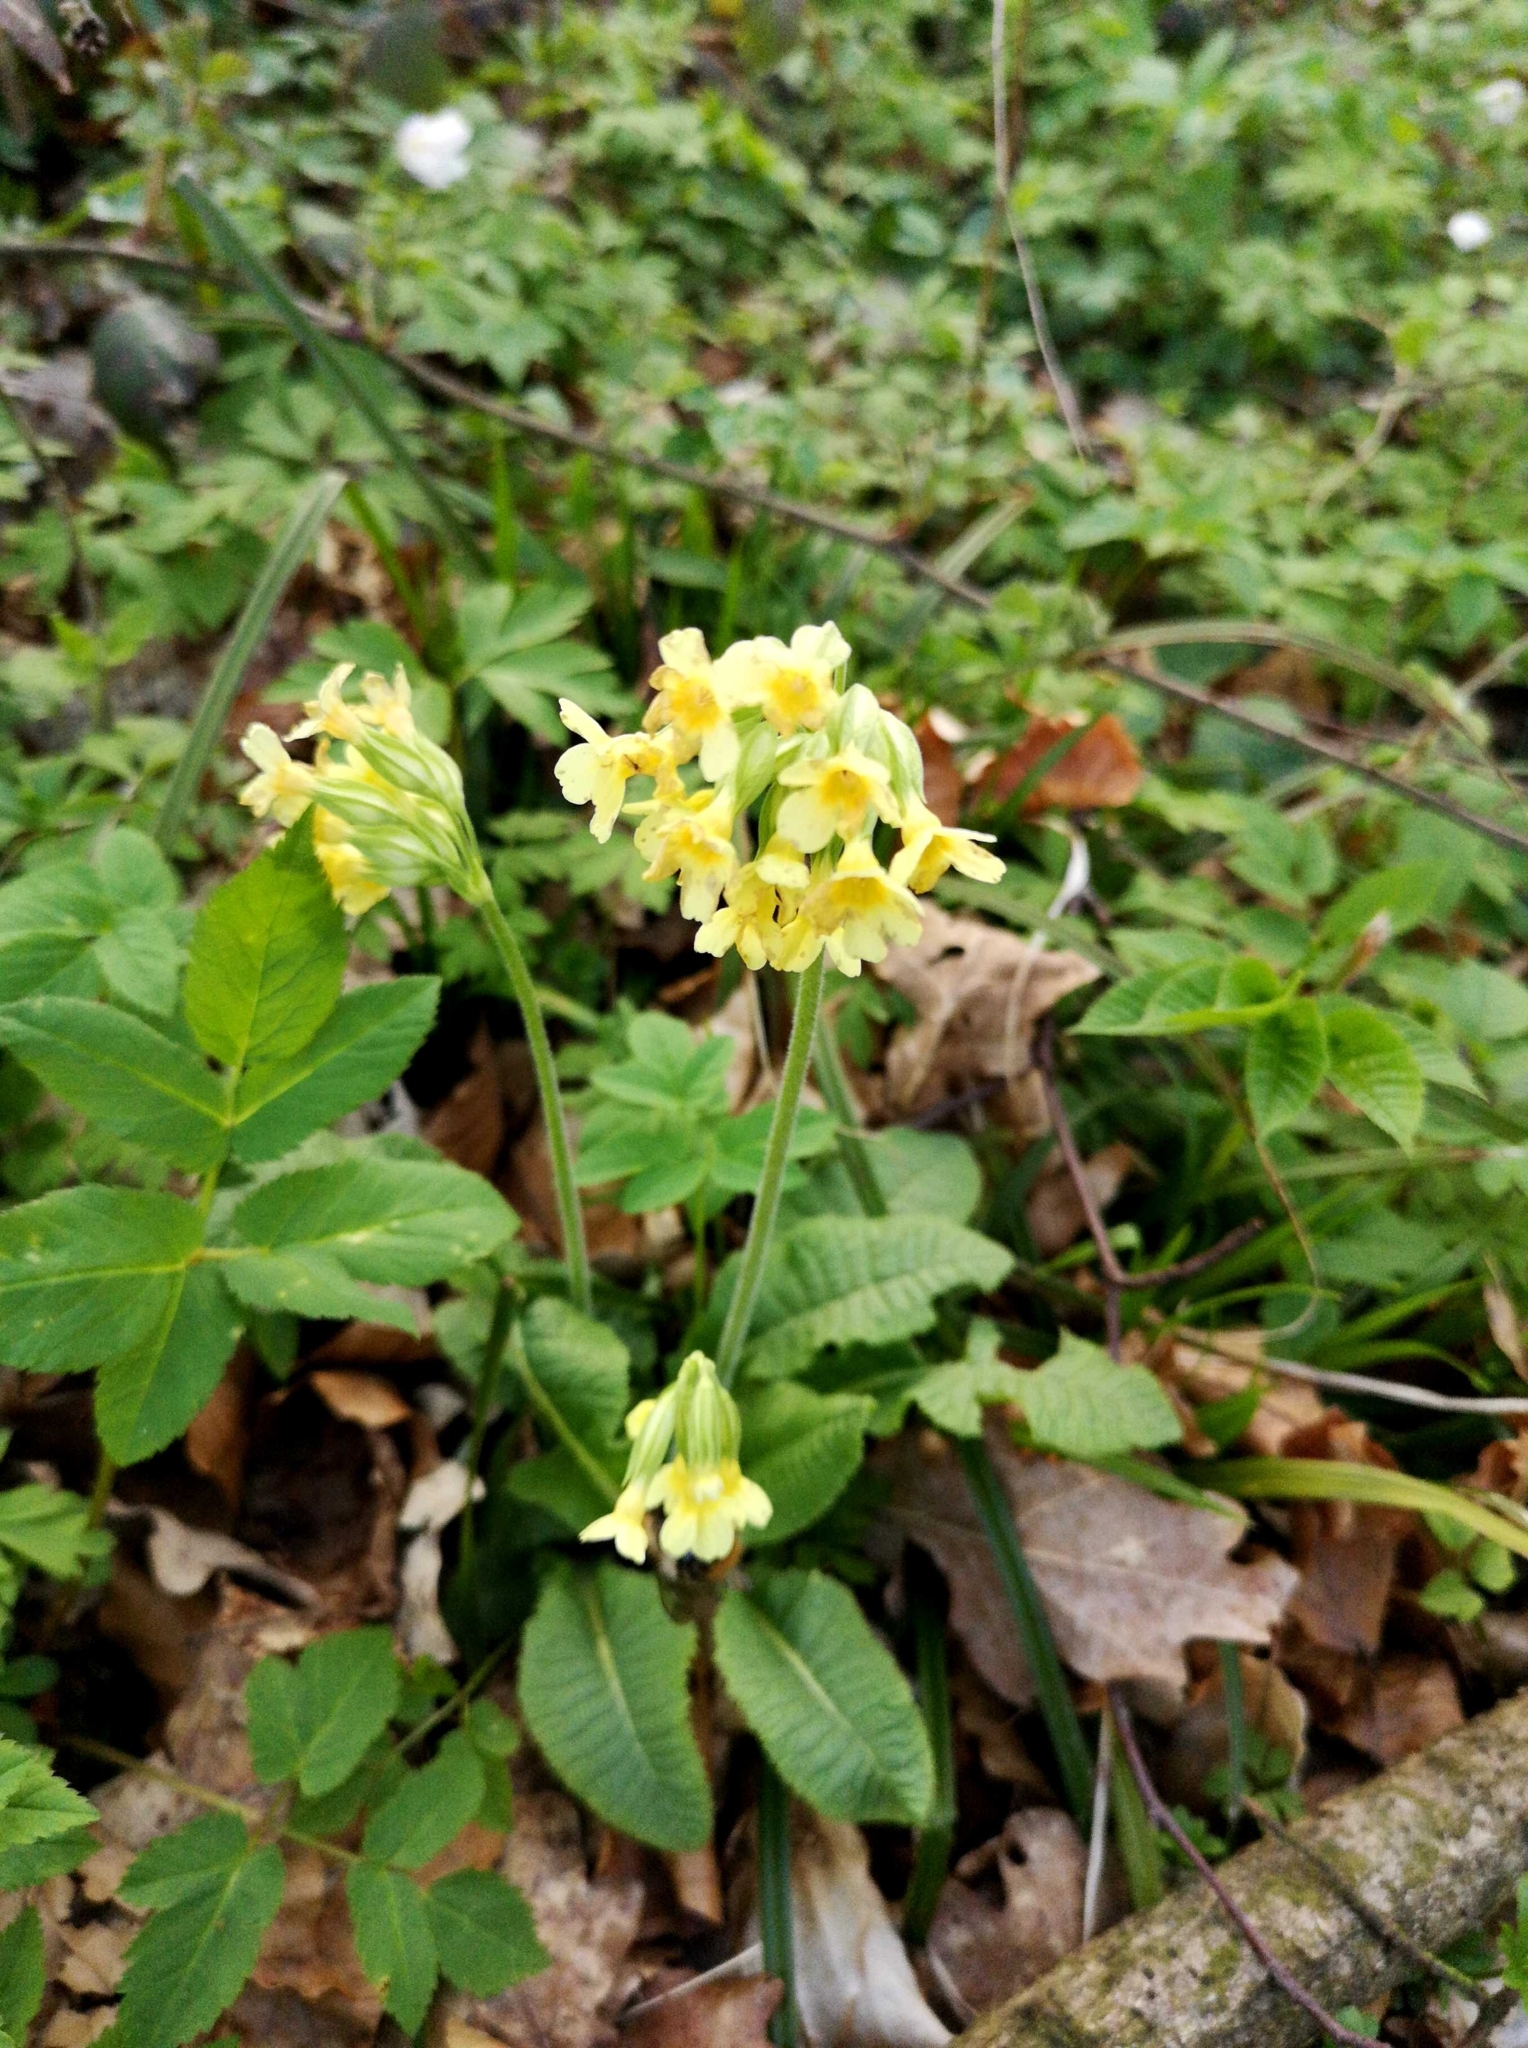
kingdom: Plantae
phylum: Tracheophyta
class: Magnoliopsida
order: Ericales
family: Primulaceae
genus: Primula
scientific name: Primula elatior
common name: Oxlip
